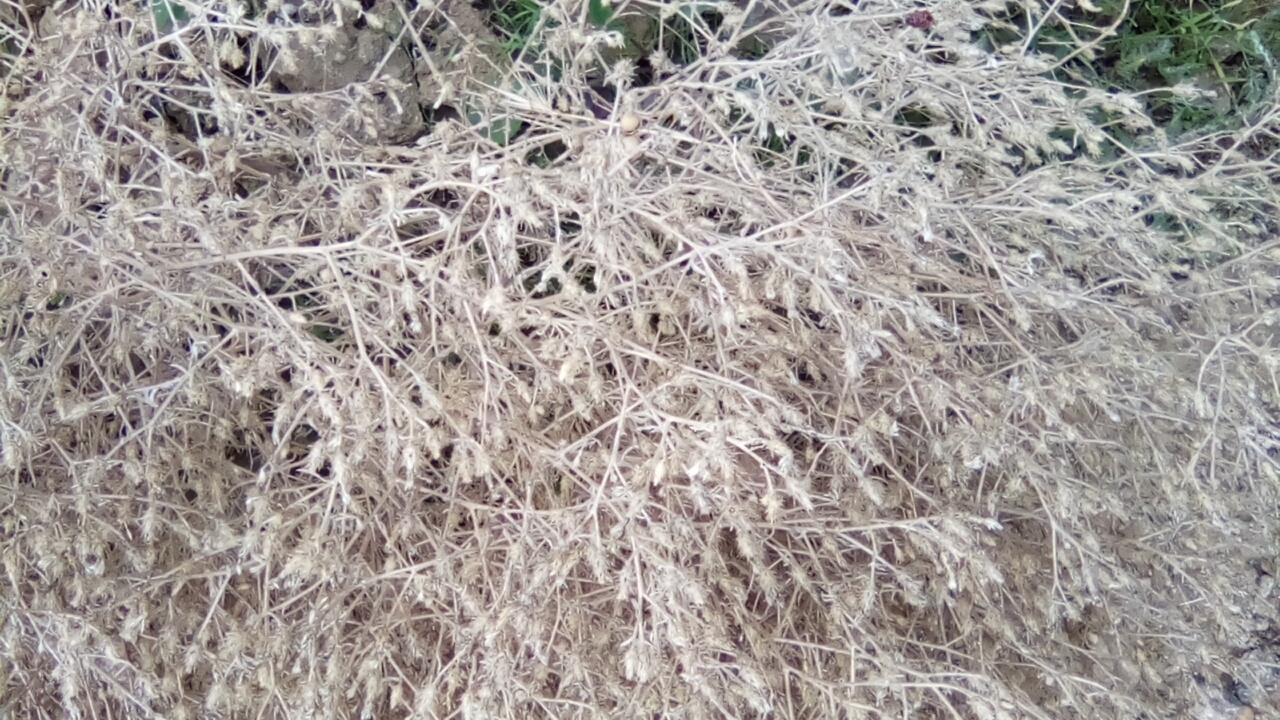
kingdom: Plantae
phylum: Tracheophyta
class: Magnoliopsida
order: Asterales
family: Asteraceae
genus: Centaurea
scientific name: Centaurea diffusa
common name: Diffuse knapweed
